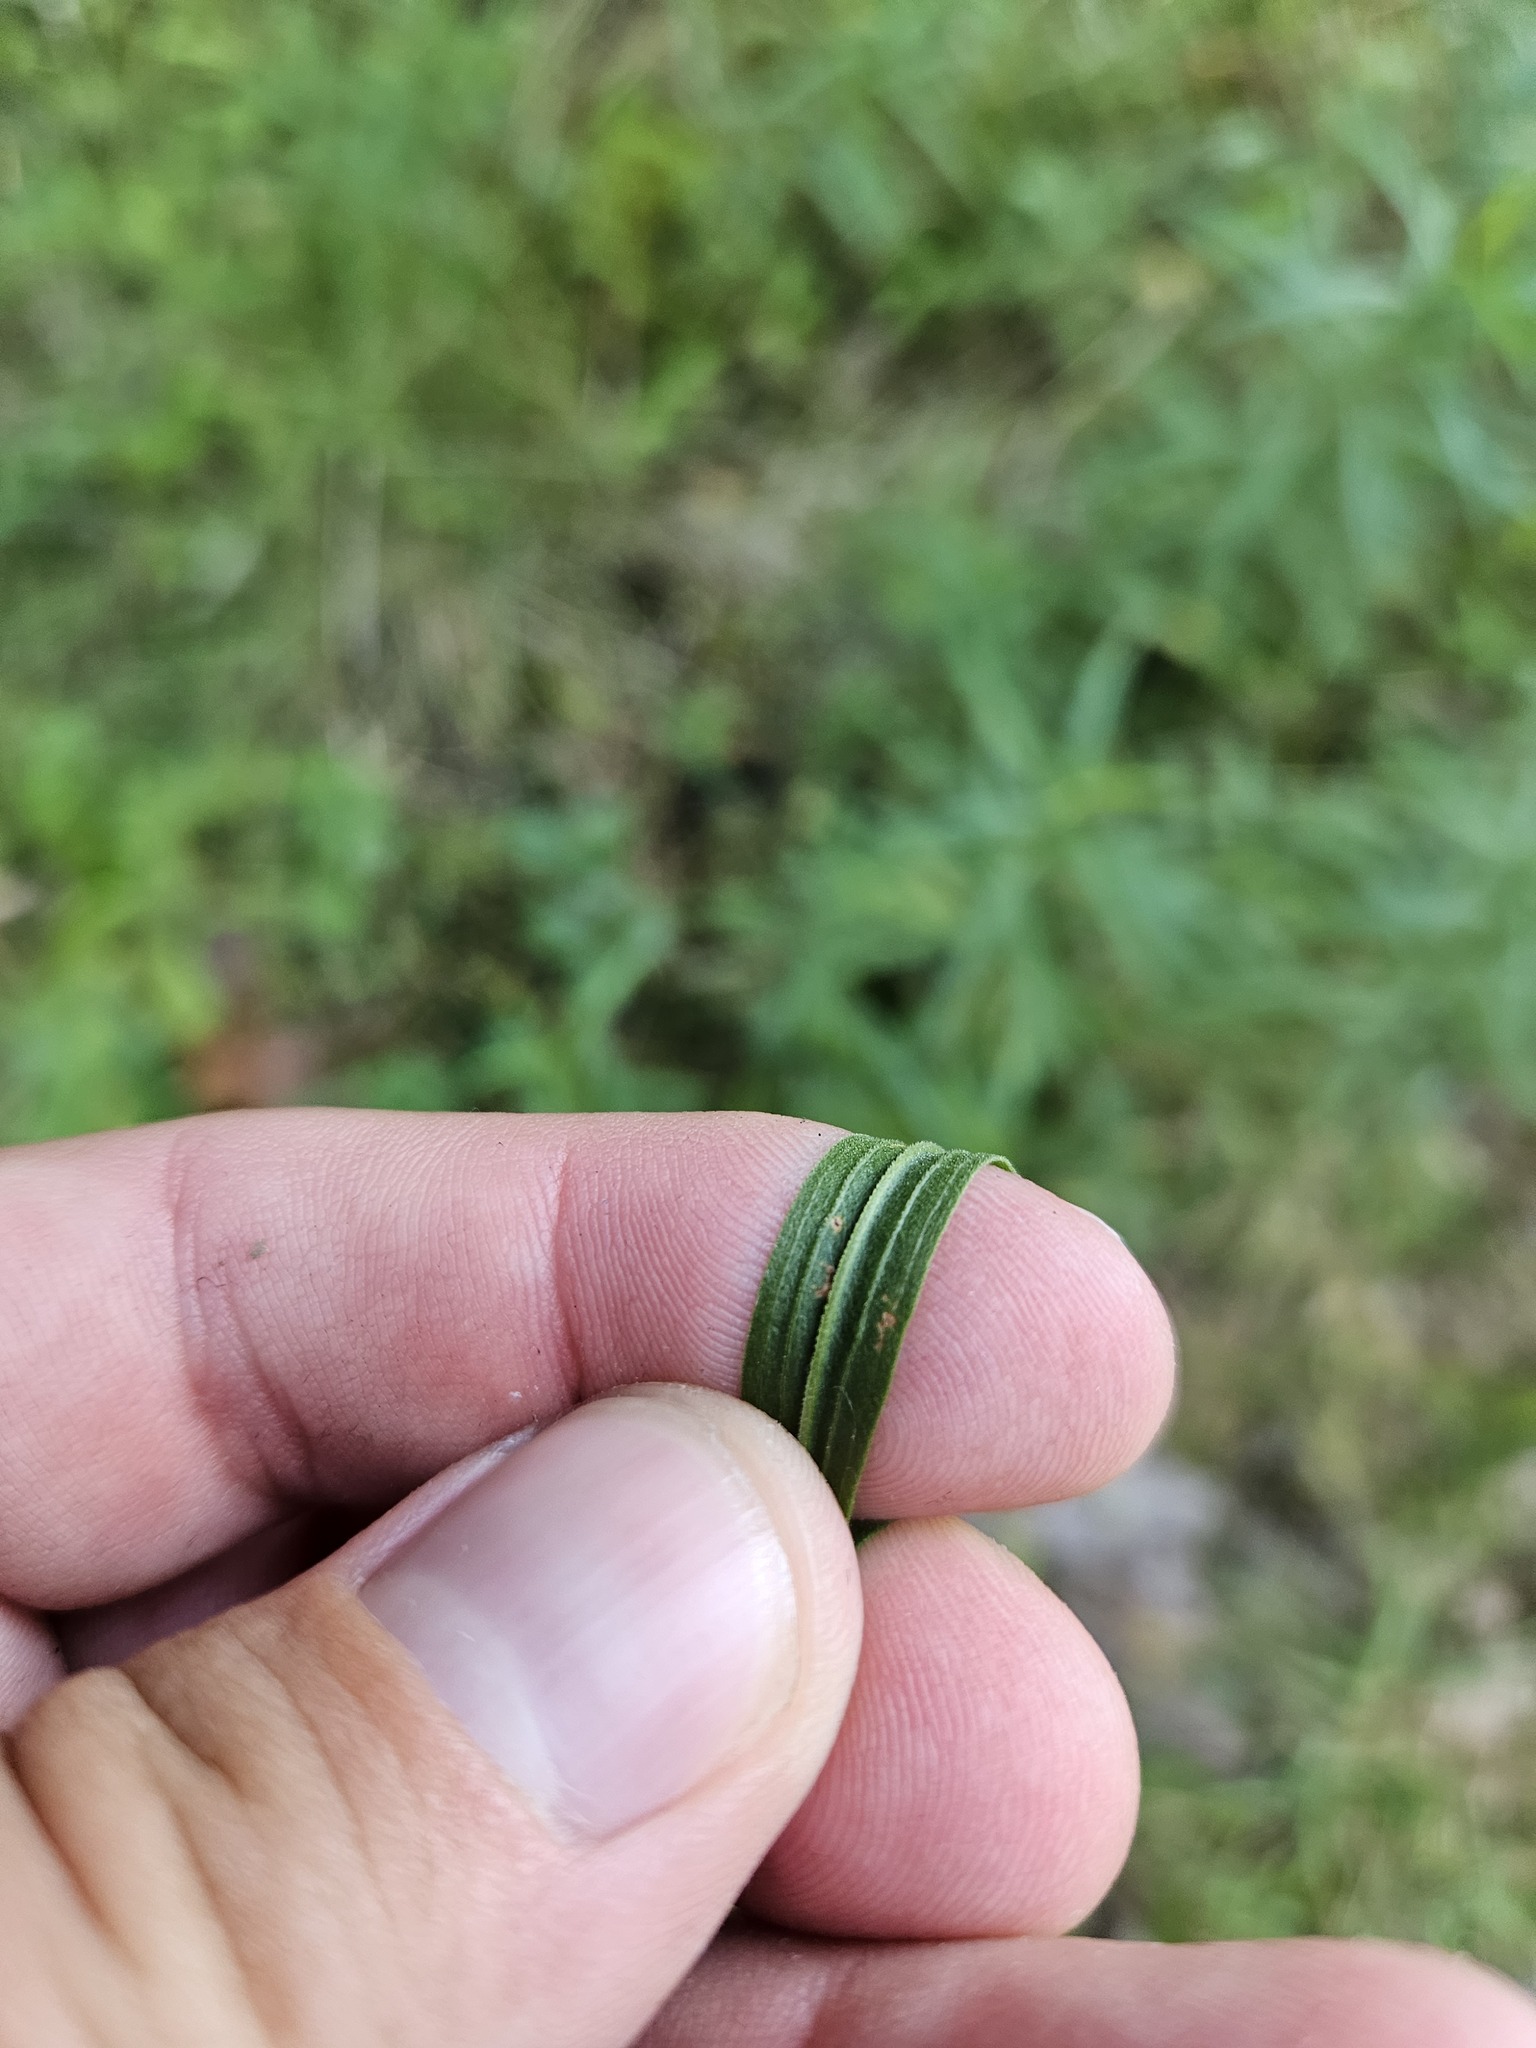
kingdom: Plantae
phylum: Tracheophyta
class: Magnoliopsida
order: Asterales
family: Asteraceae
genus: Euthamia
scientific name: Euthamia graminifolia
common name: Common goldentop
